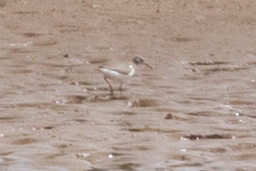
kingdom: Animalia
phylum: Chordata
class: Aves
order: Charadriiformes
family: Scolopacidae
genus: Actitis
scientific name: Actitis macularius
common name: Spotted sandpiper
